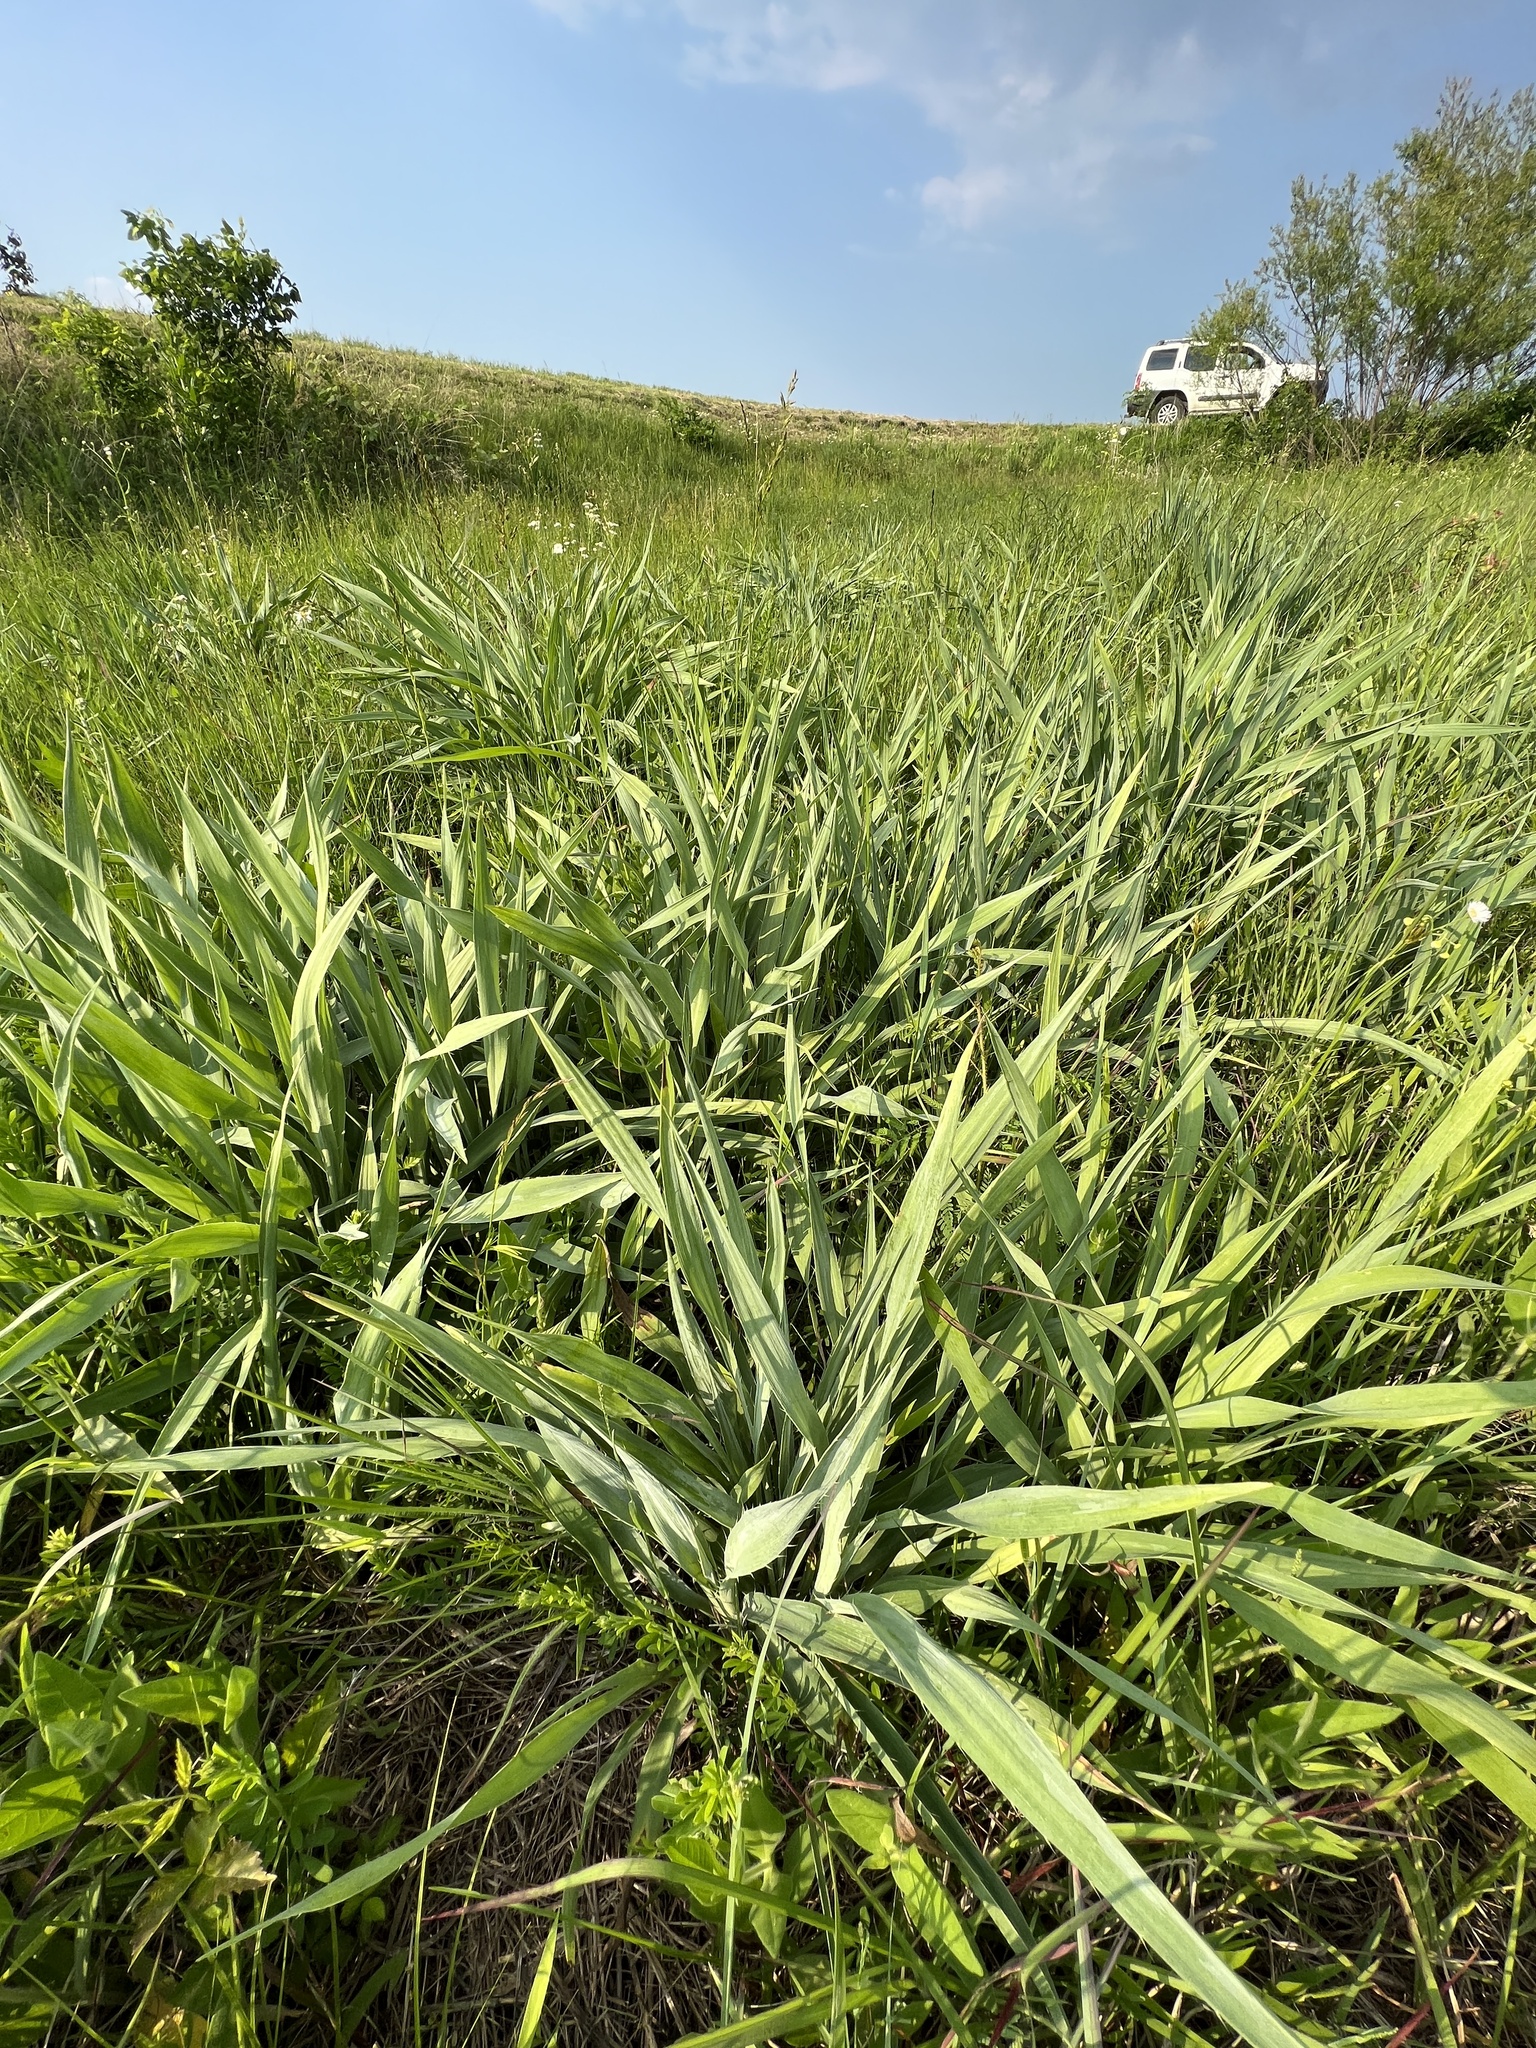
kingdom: Plantae
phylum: Tracheophyta
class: Magnoliopsida
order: Apiales
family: Apiaceae
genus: Eryngium
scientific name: Eryngium yuccifolium
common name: Button eryngo
